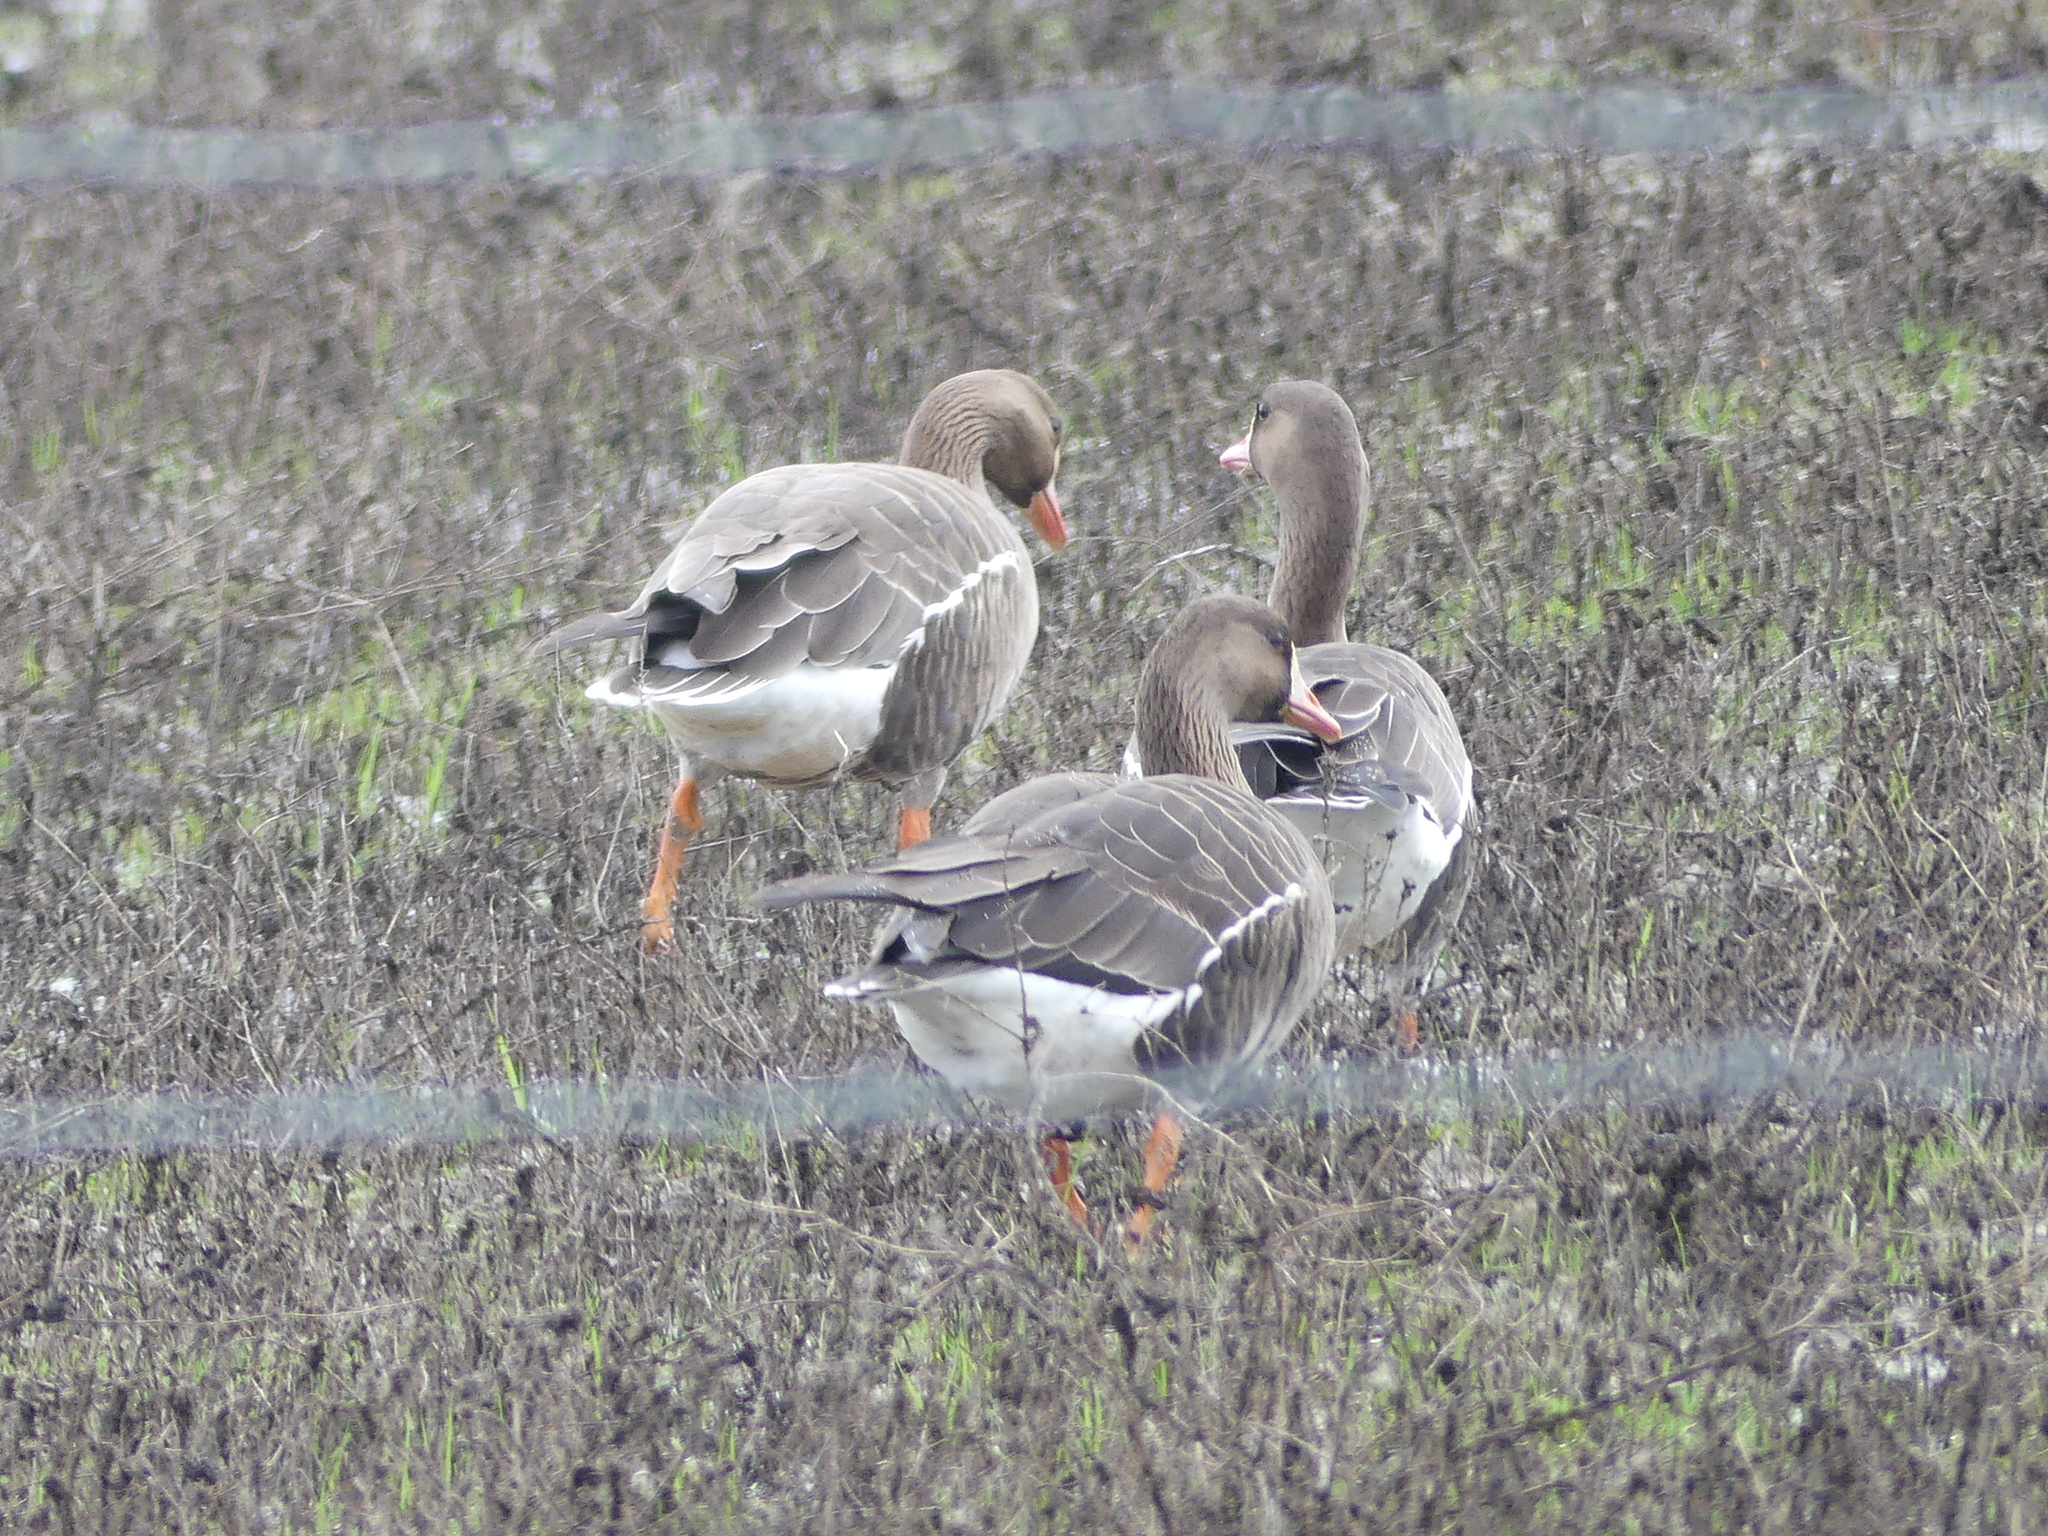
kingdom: Animalia
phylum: Chordata
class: Aves
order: Anseriformes
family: Anatidae
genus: Anser
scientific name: Anser albifrons
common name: Greater white-fronted goose
